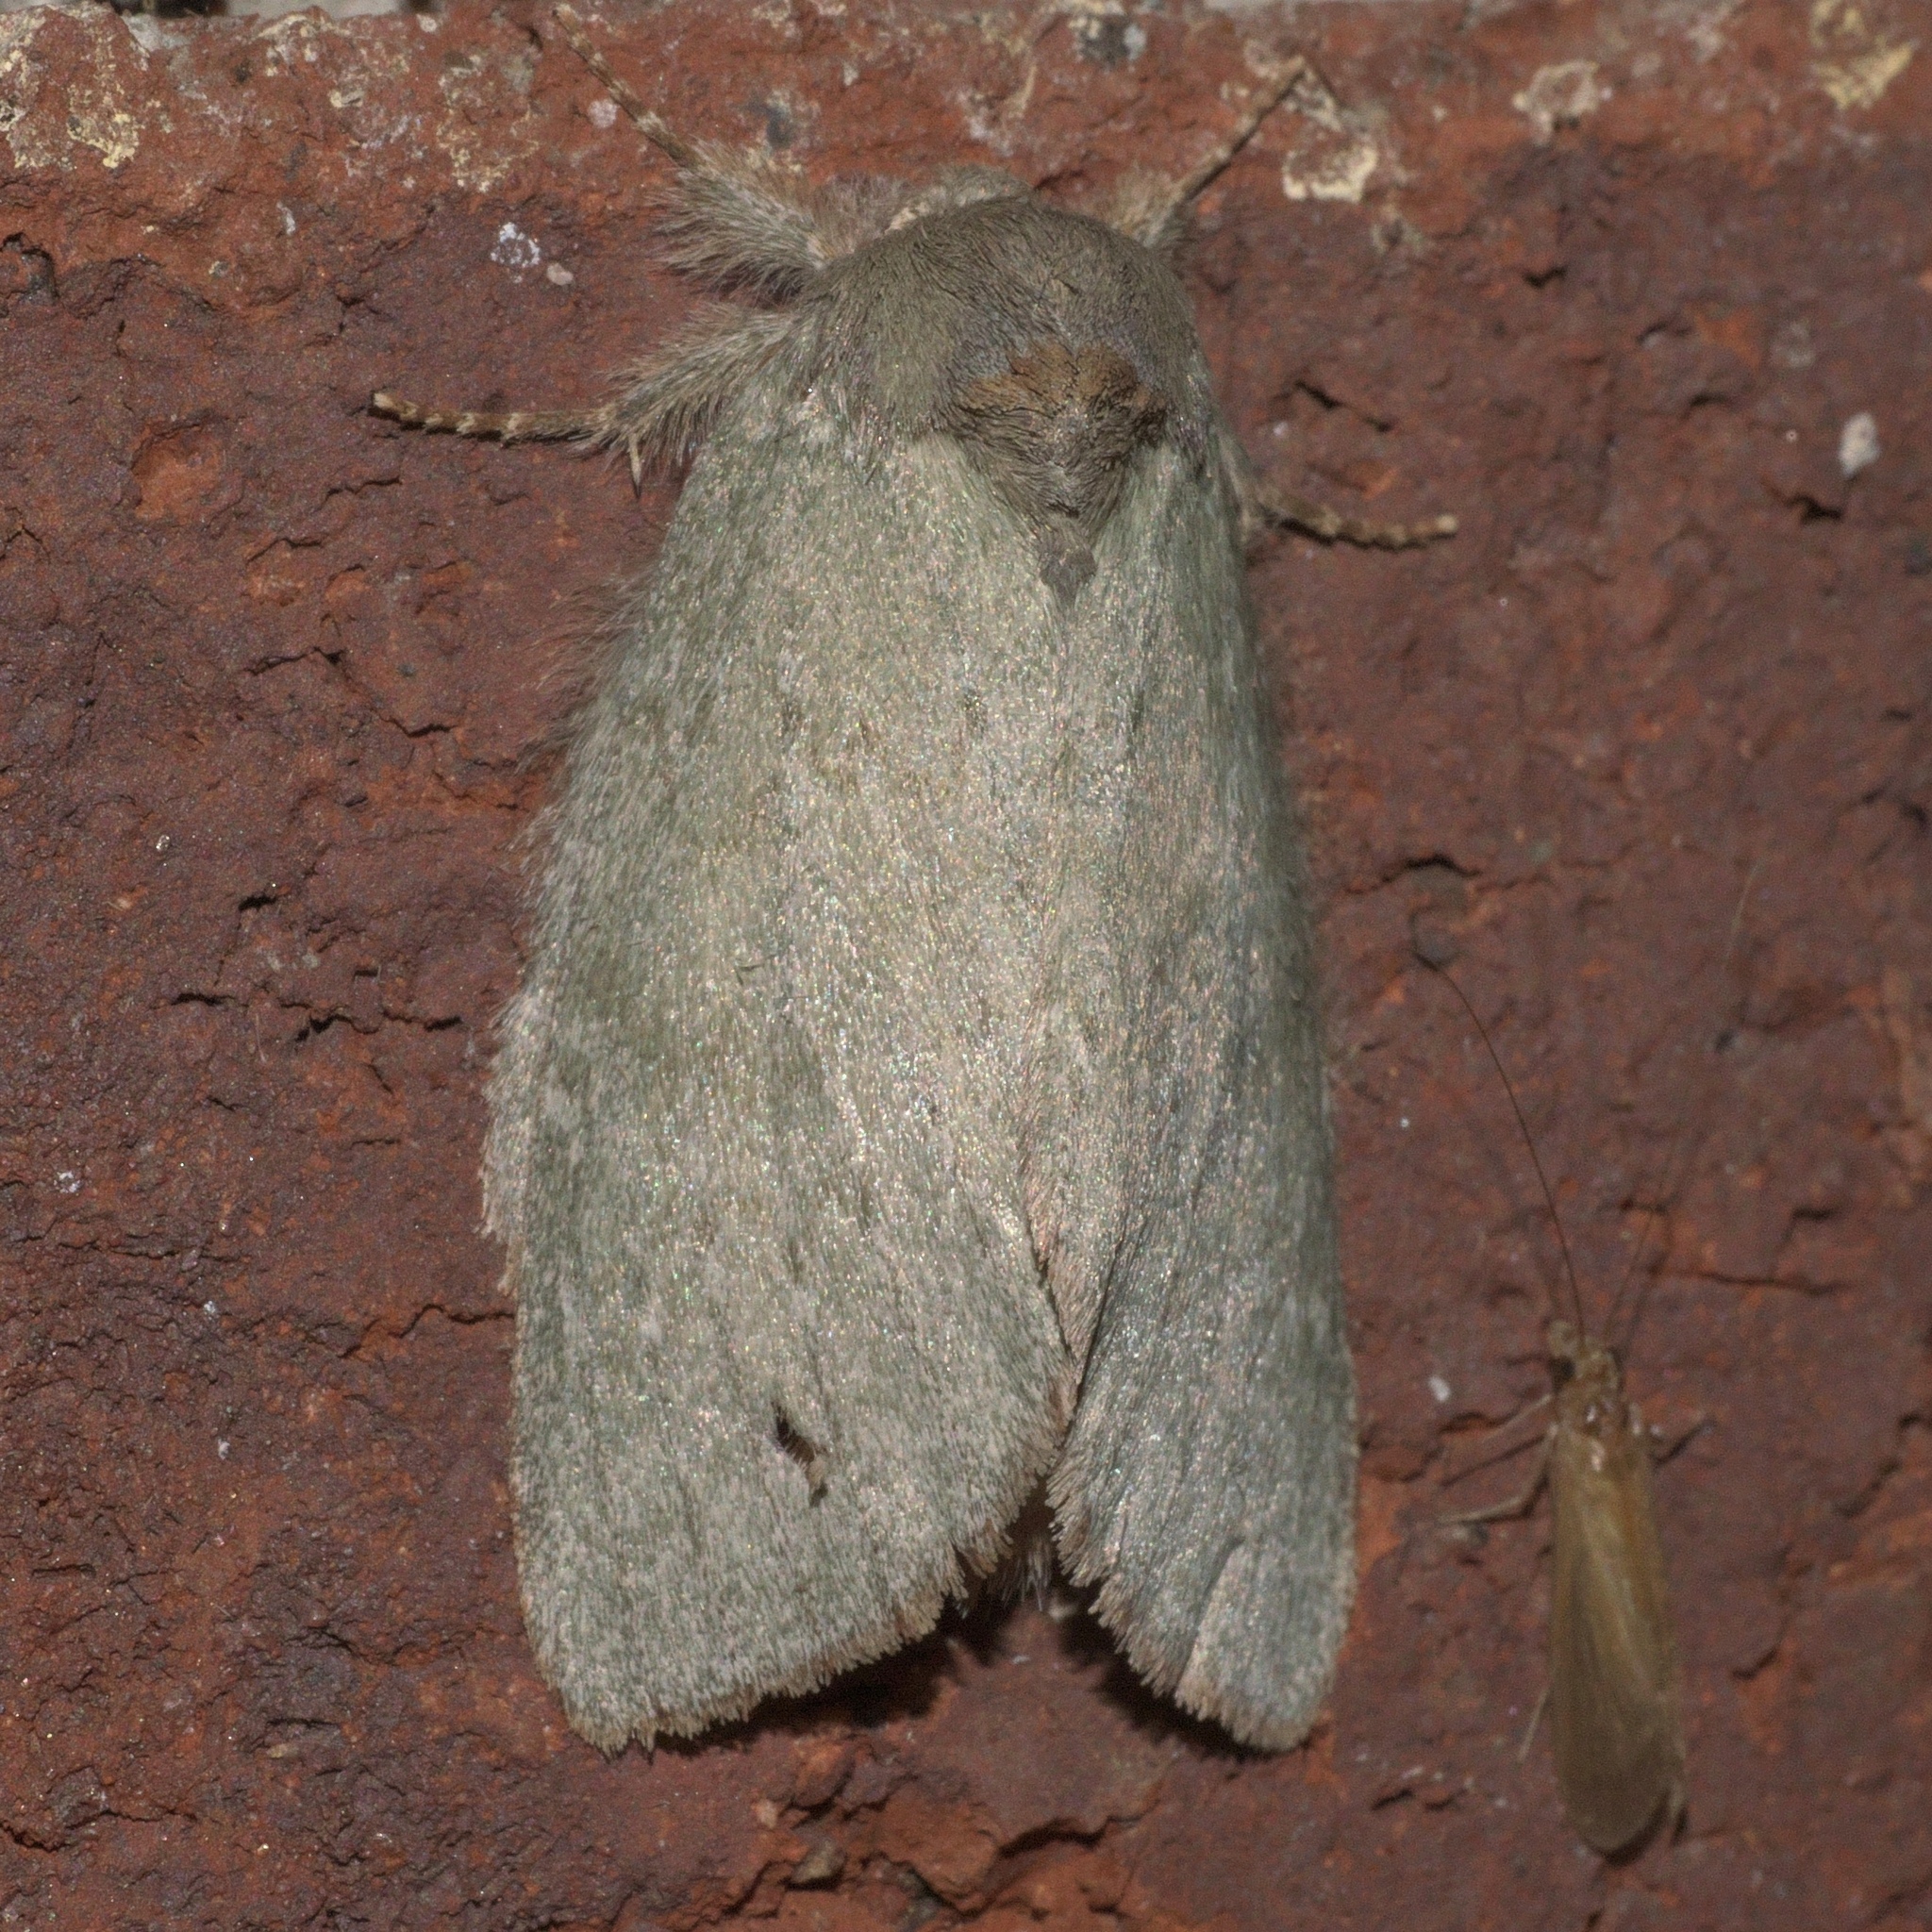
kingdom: Animalia
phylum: Arthropoda
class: Insecta
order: Lepidoptera
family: Notodontidae
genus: Misogada
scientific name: Misogada unicolor
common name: Drab prominent
